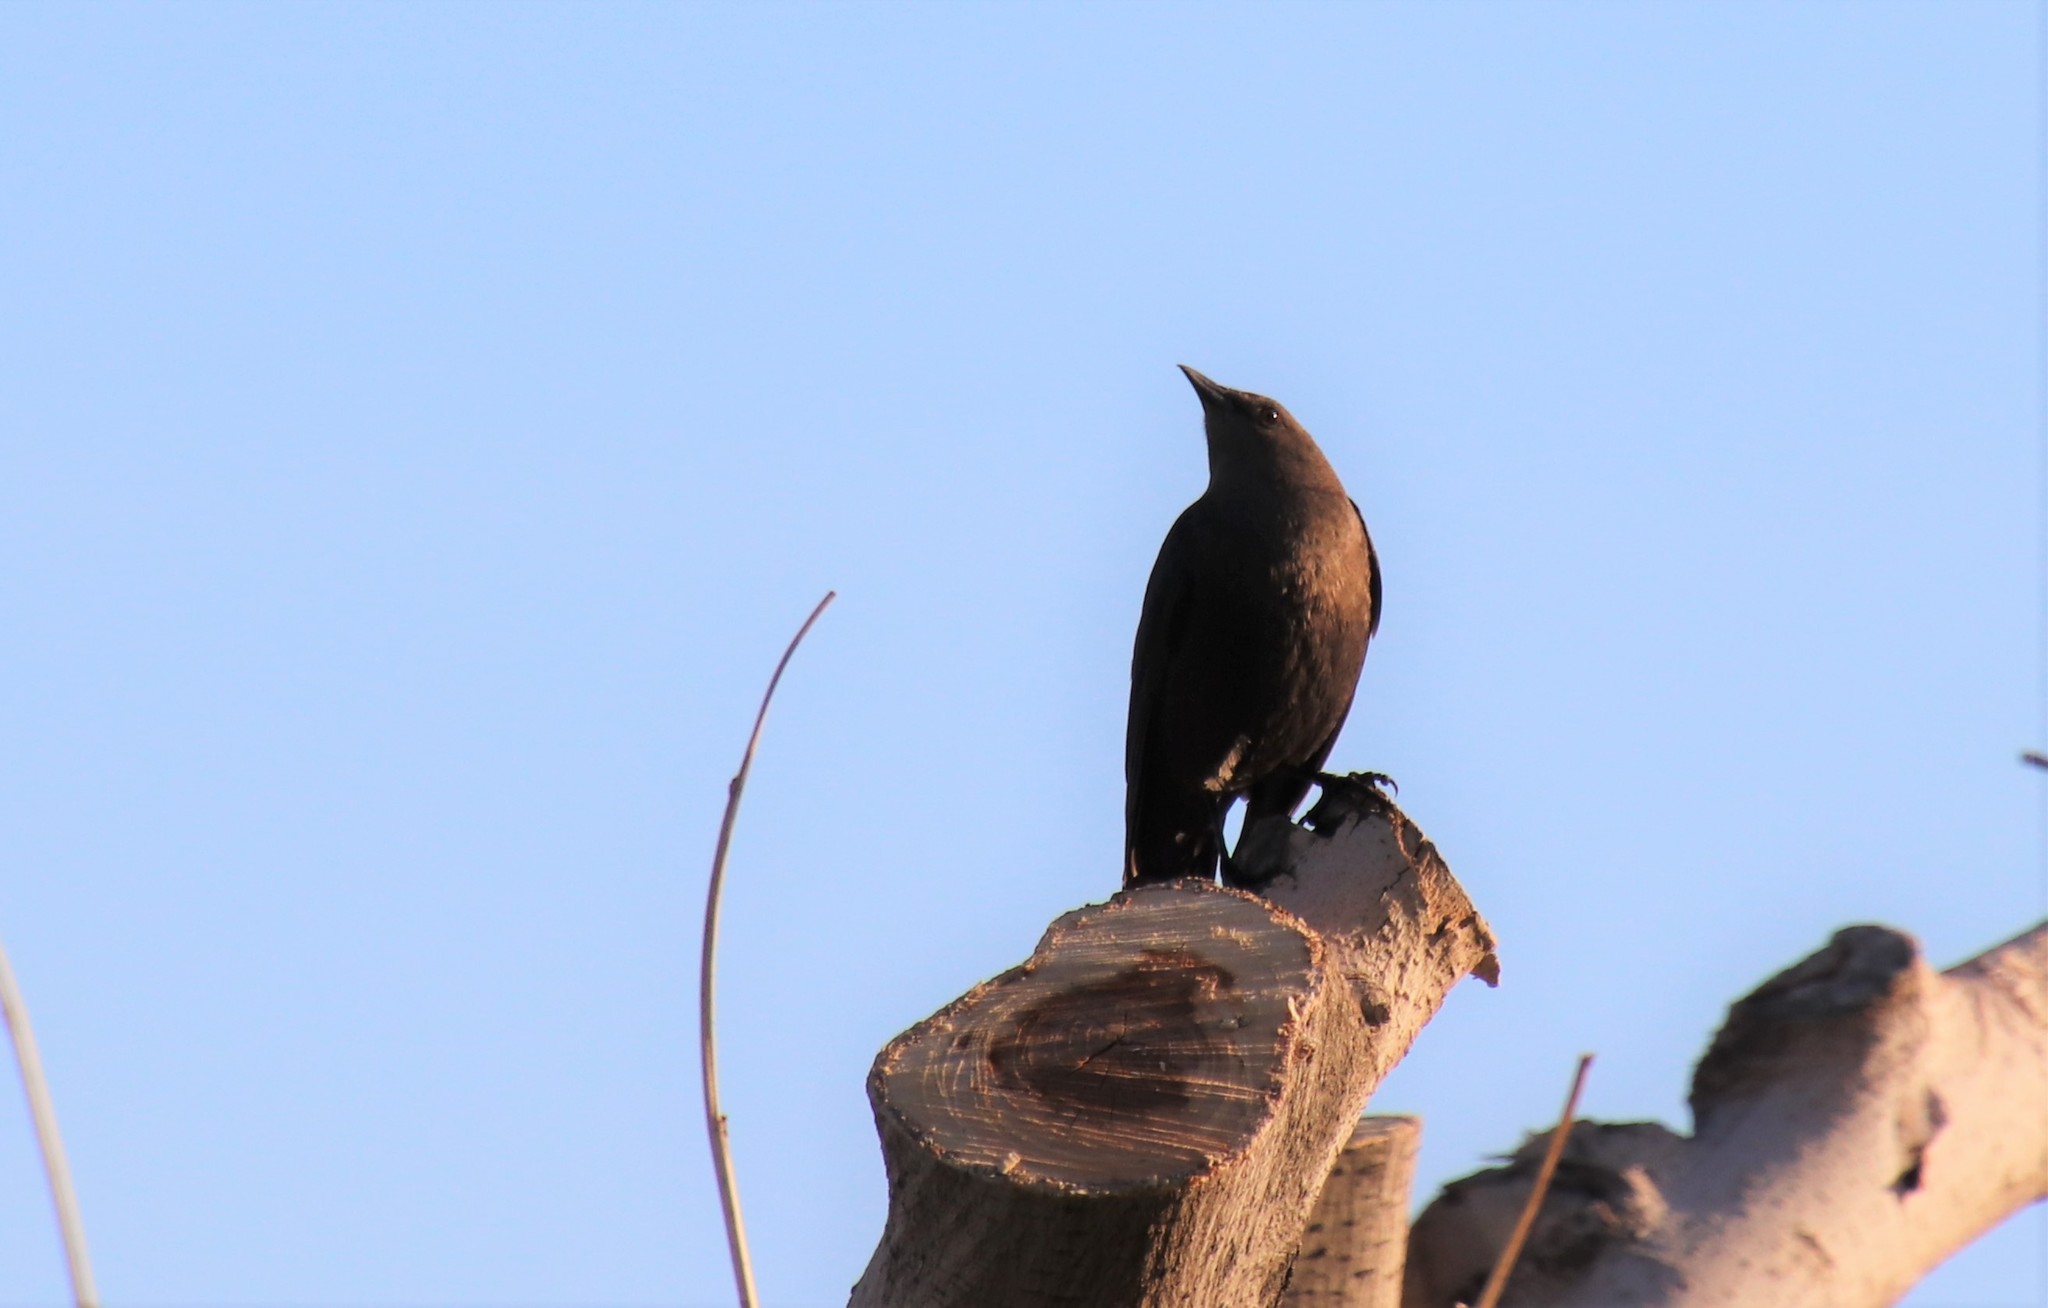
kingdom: Animalia
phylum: Chordata
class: Aves
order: Passeriformes
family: Icteridae
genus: Euphagus
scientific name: Euphagus cyanocephalus
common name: Brewer's blackbird
